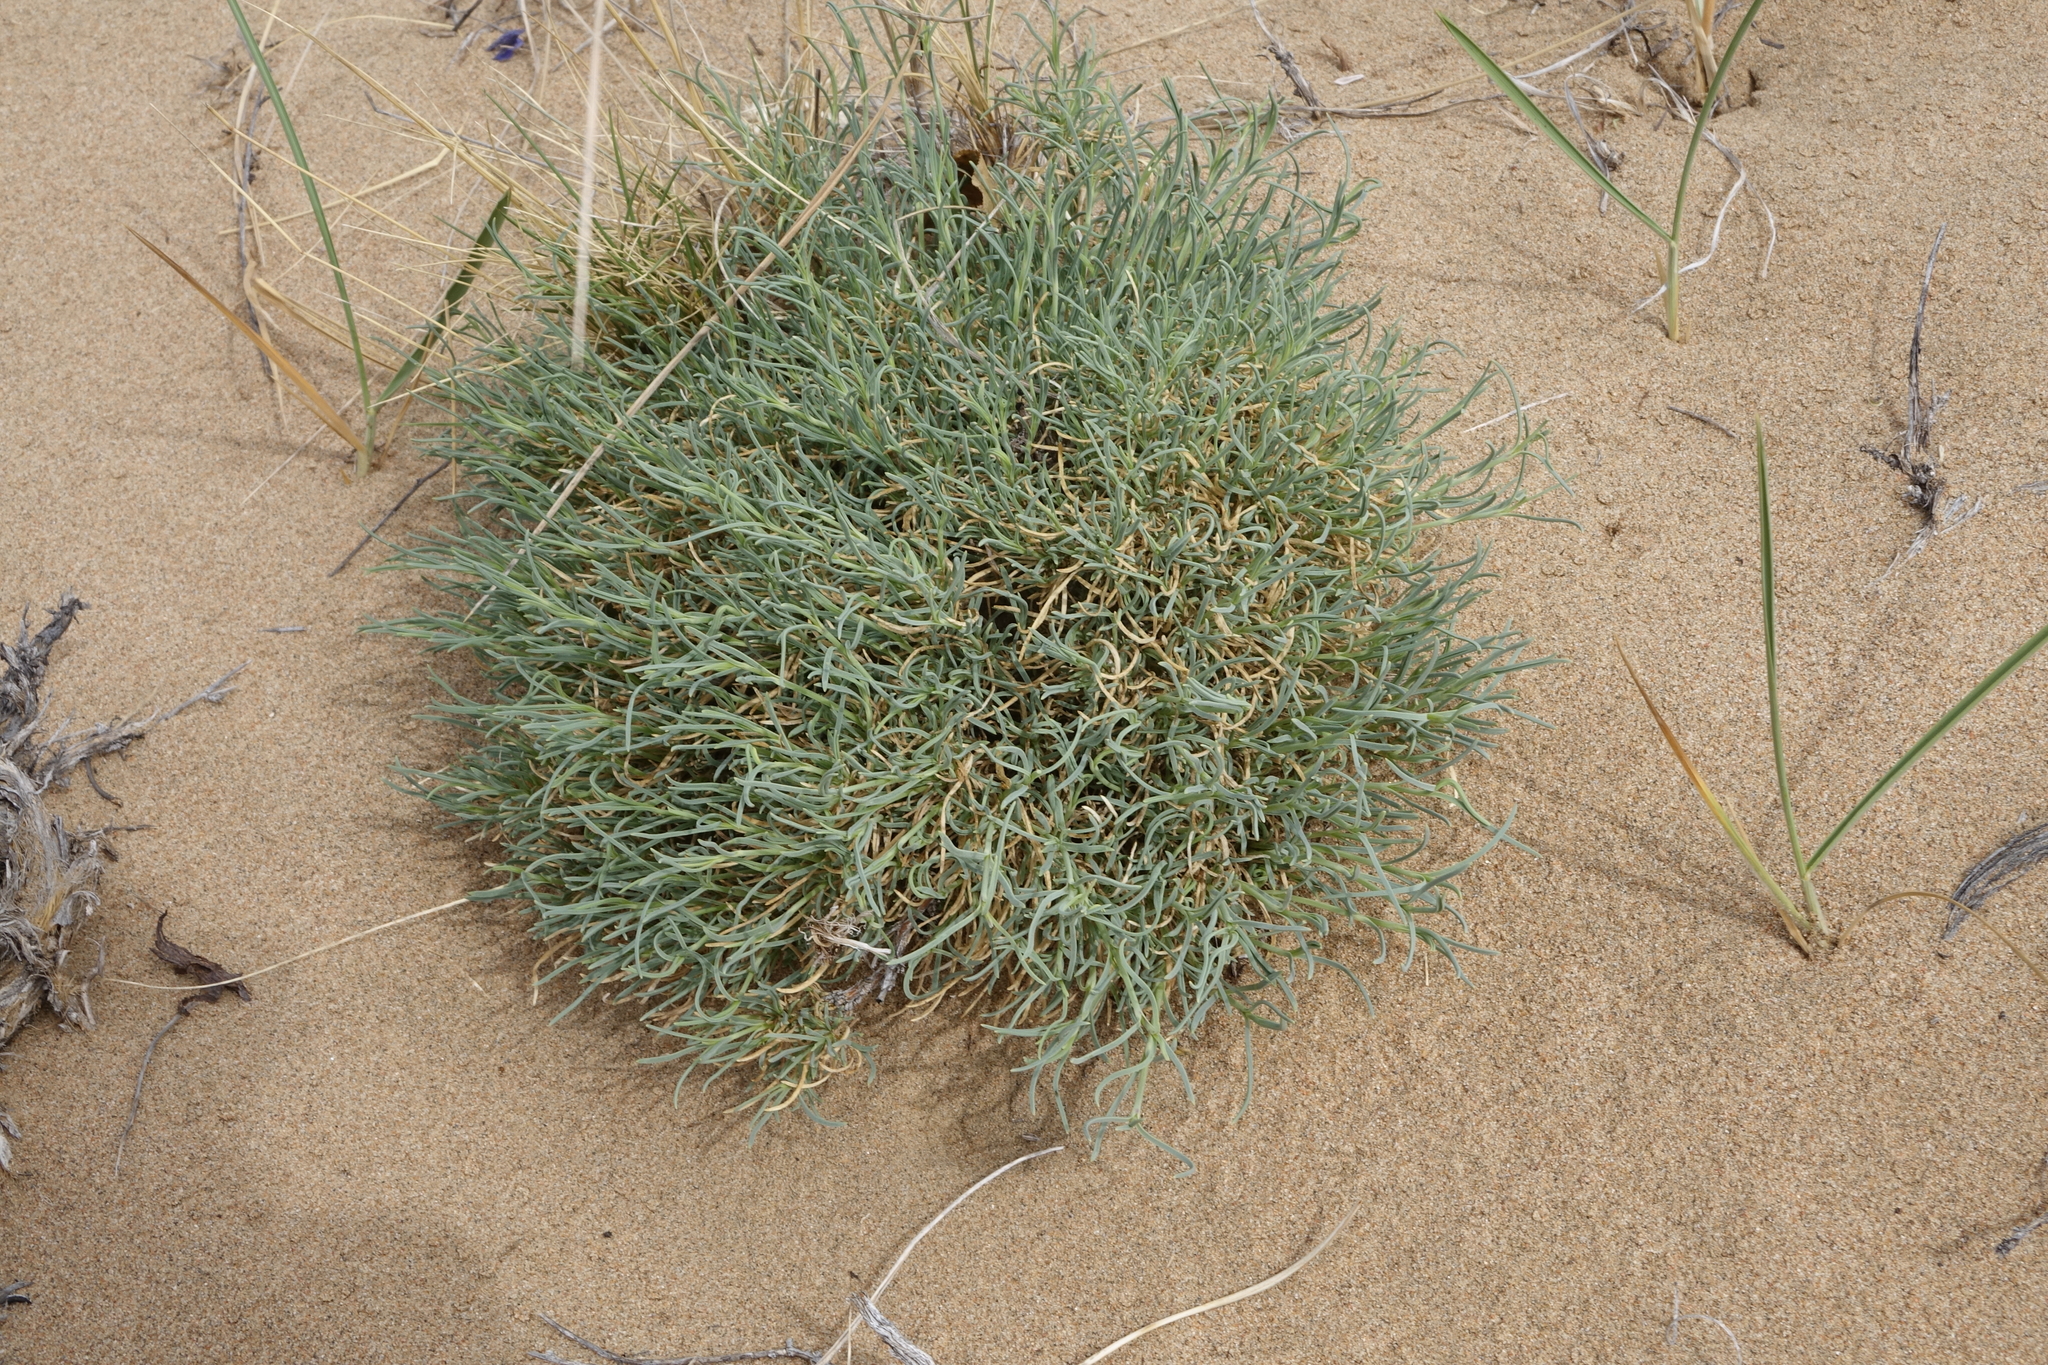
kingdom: Plantae
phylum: Tracheophyta
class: Magnoliopsida
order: Caryophyllales
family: Caryophyllaceae
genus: Gypsophila
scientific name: Gypsophila patrinii
